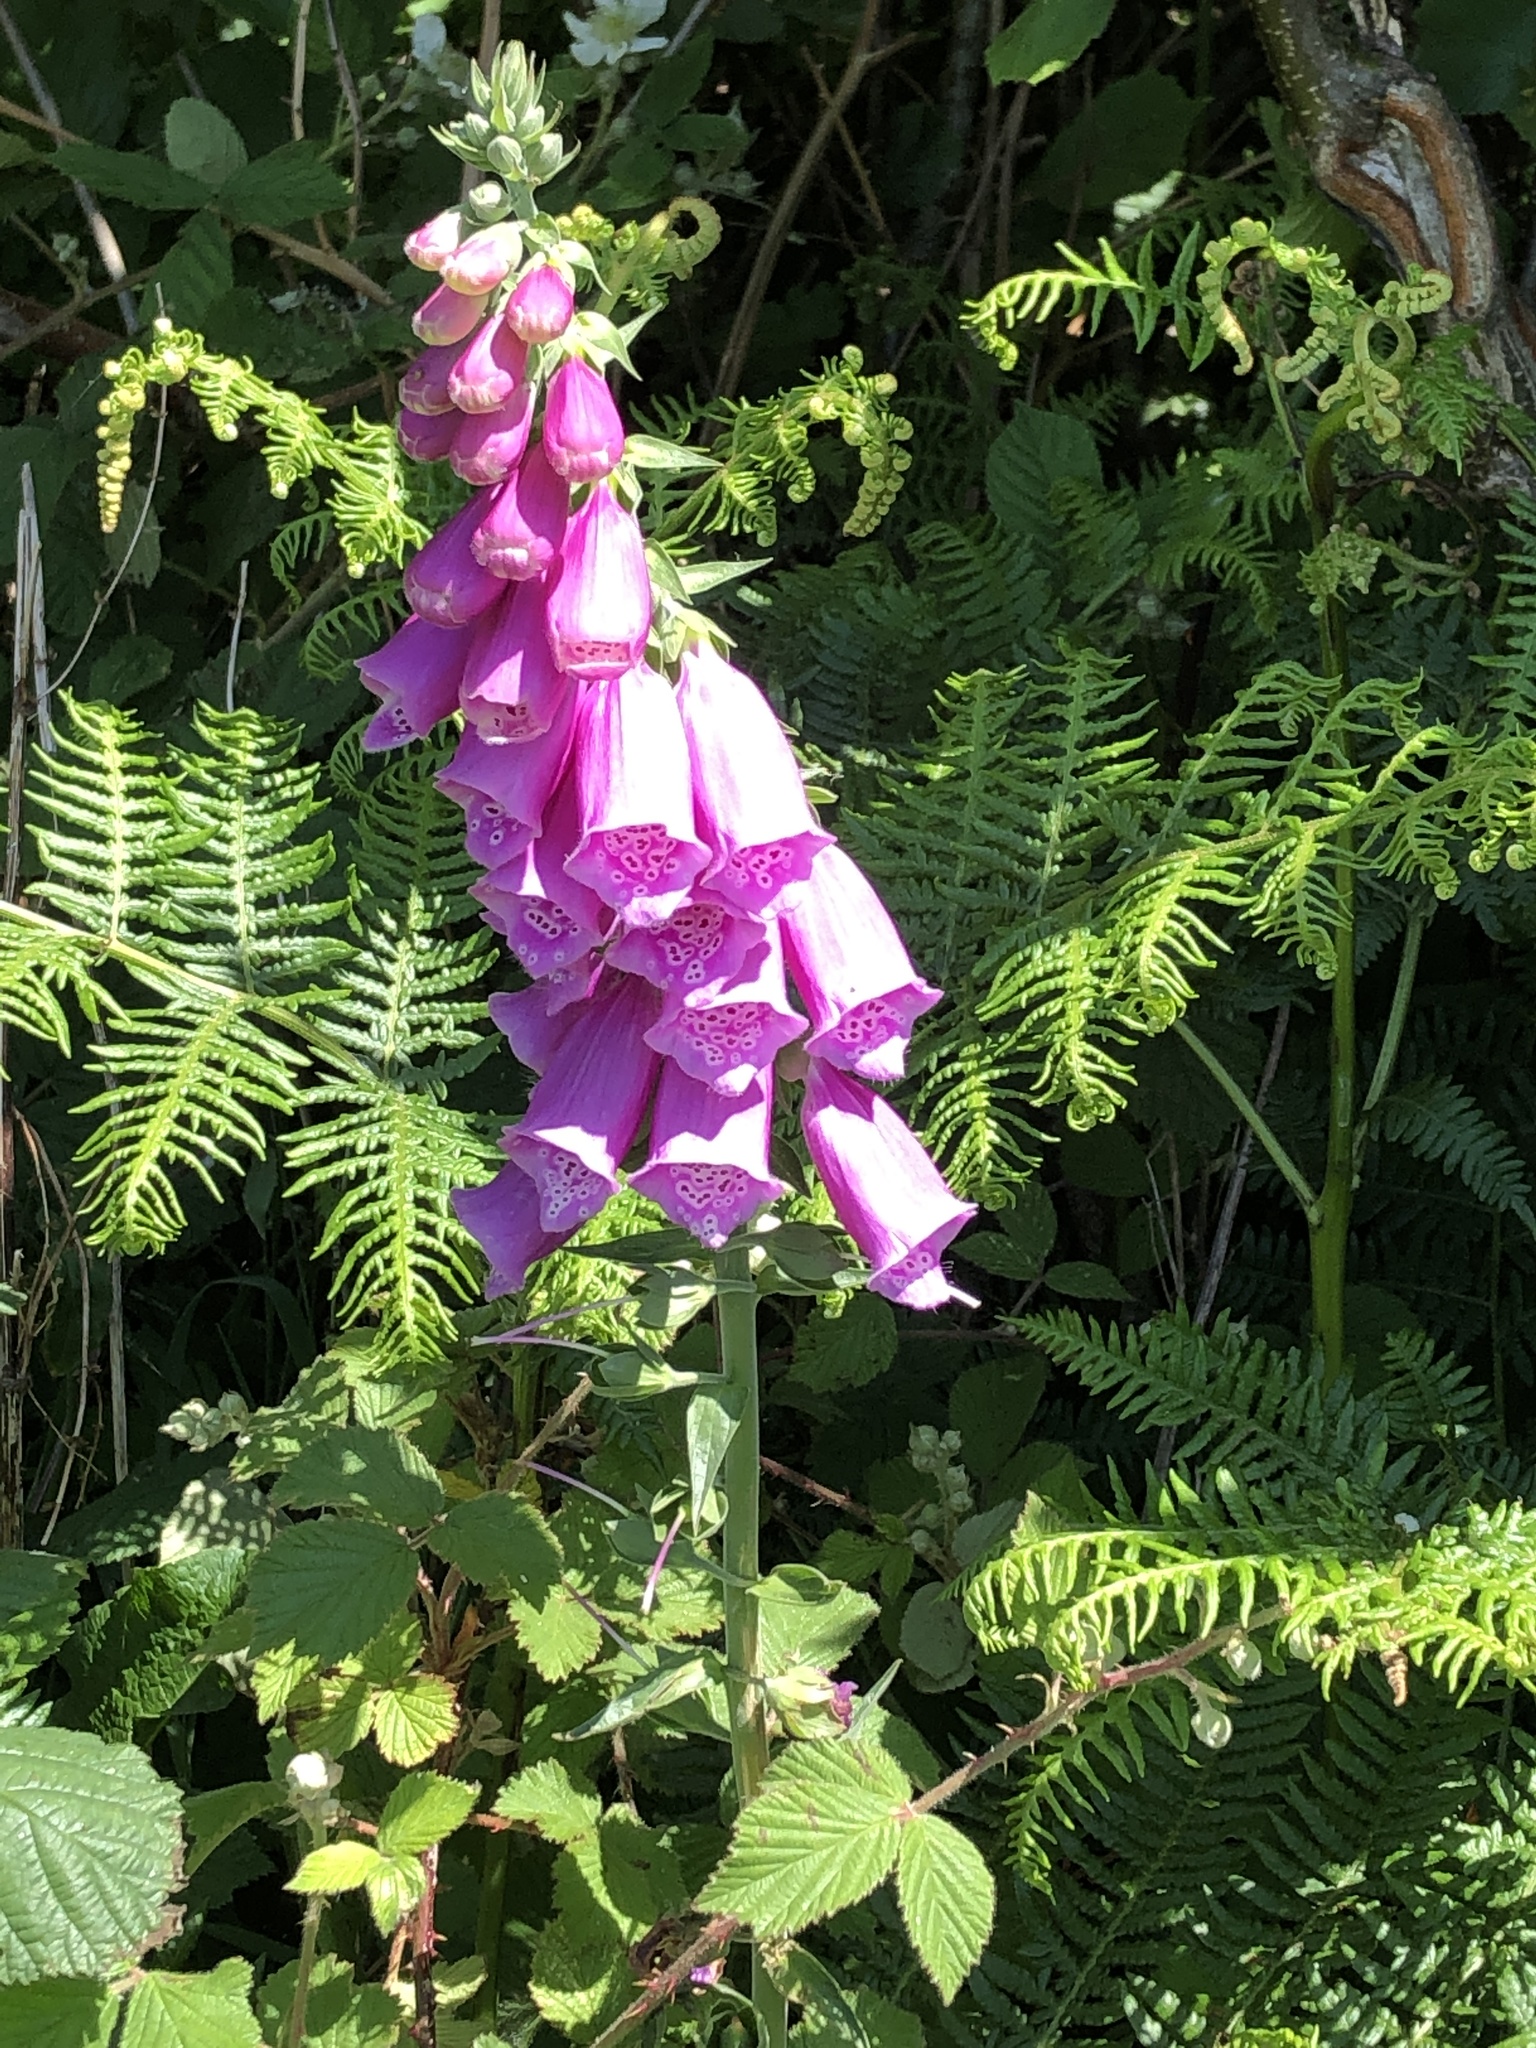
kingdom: Plantae
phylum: Tracheophyta
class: Magnoliopsida
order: Lamiales
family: Plantaginaceae
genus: Digitalis
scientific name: Digitalis purpurea
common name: Foxglove
